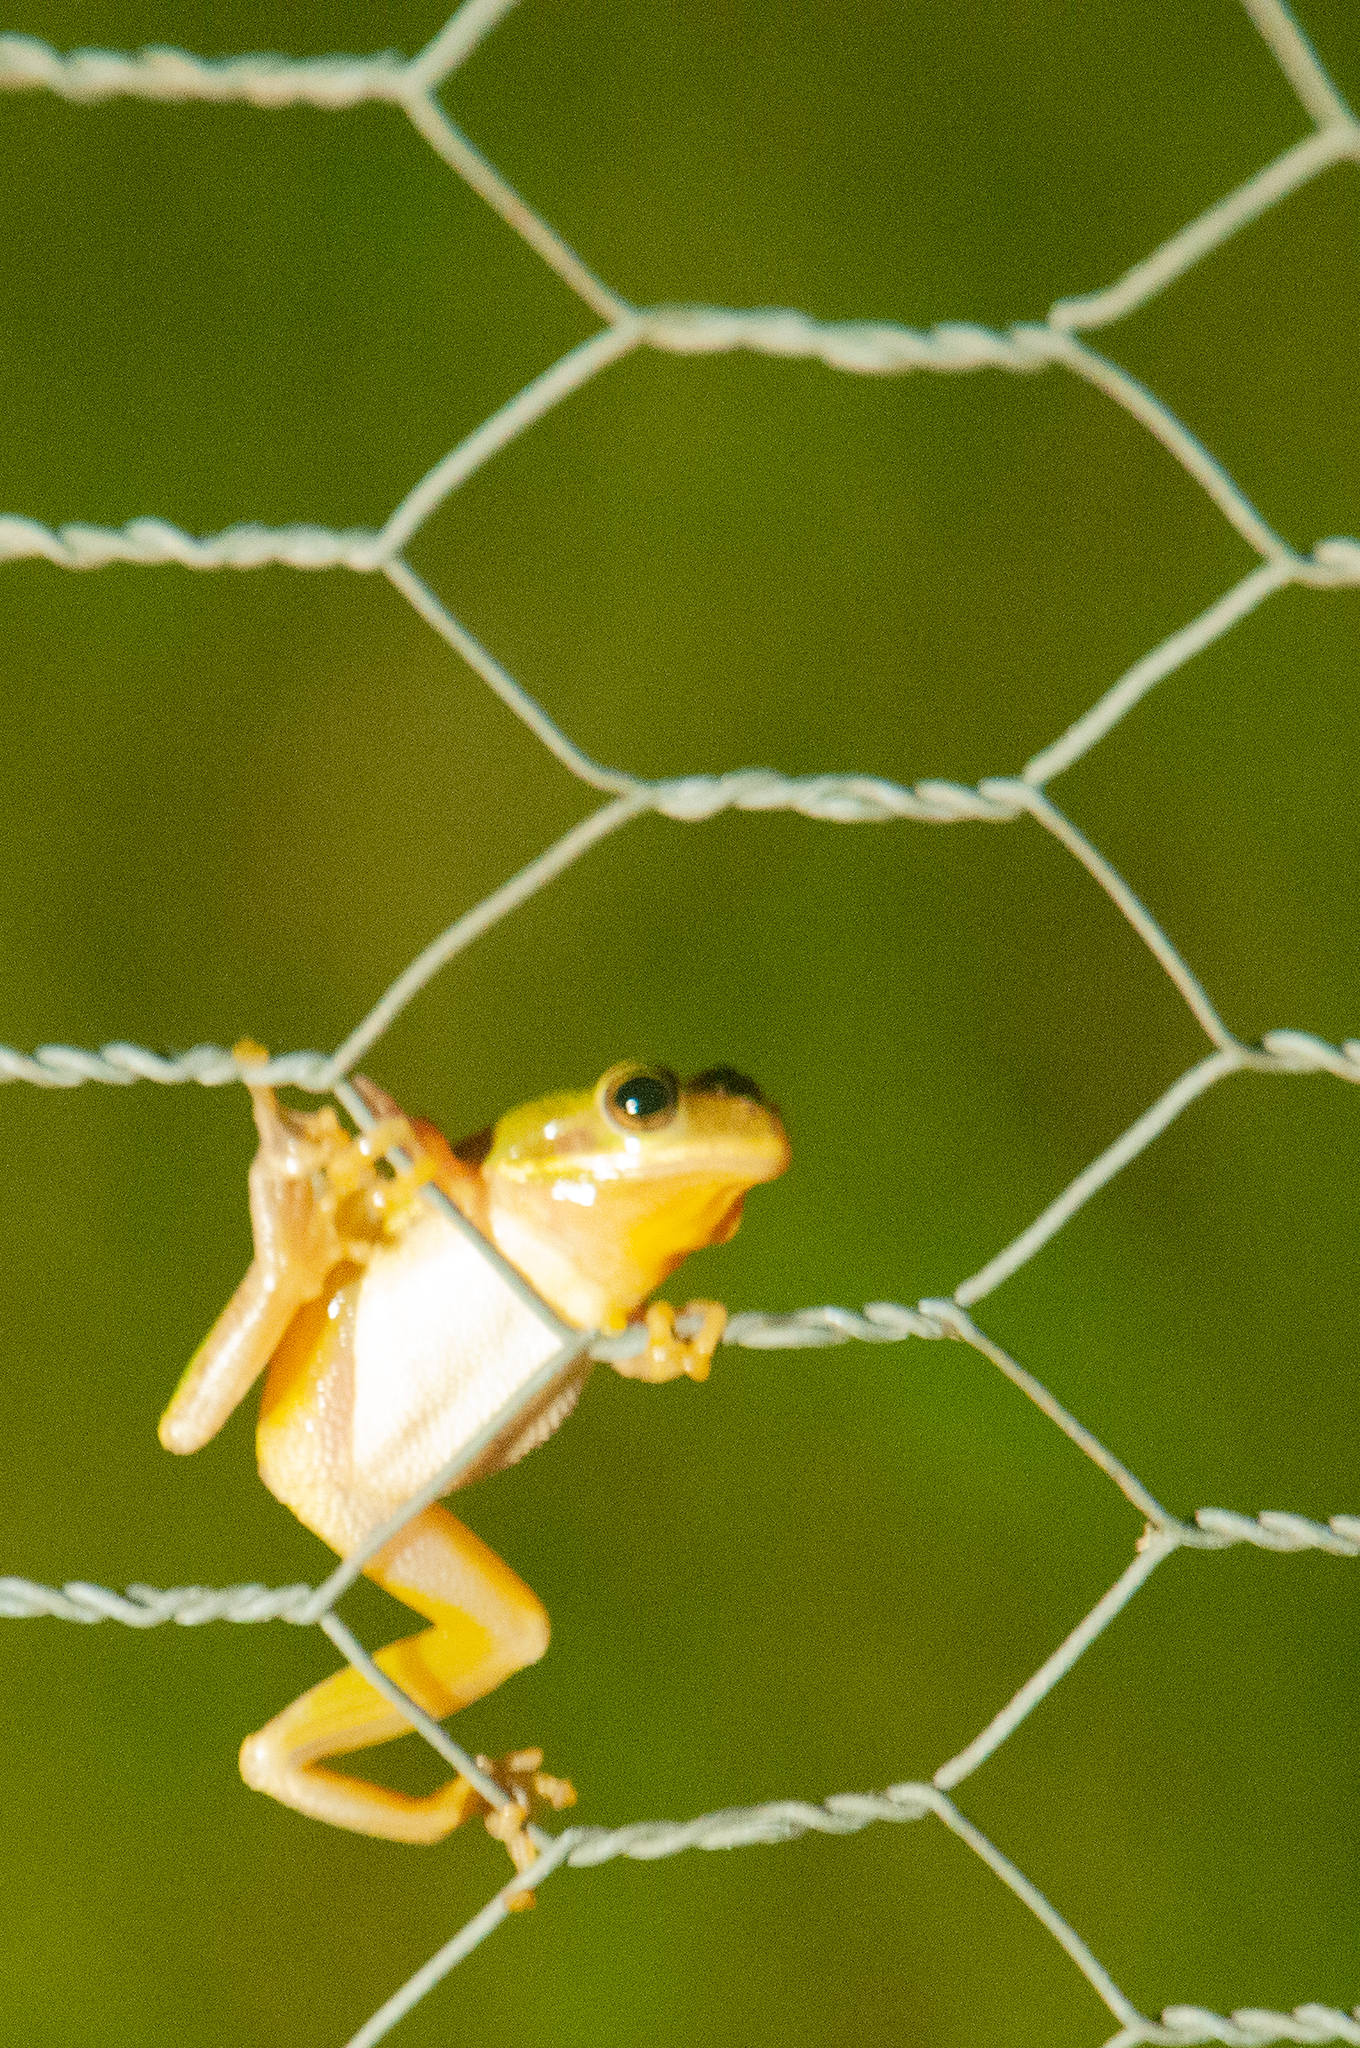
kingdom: Animalia
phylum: Chordata
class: Amphibia
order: Anura
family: Hylidae
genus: Dryophytes
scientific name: Dryophytes squirellus
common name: Squirrel treefrog
